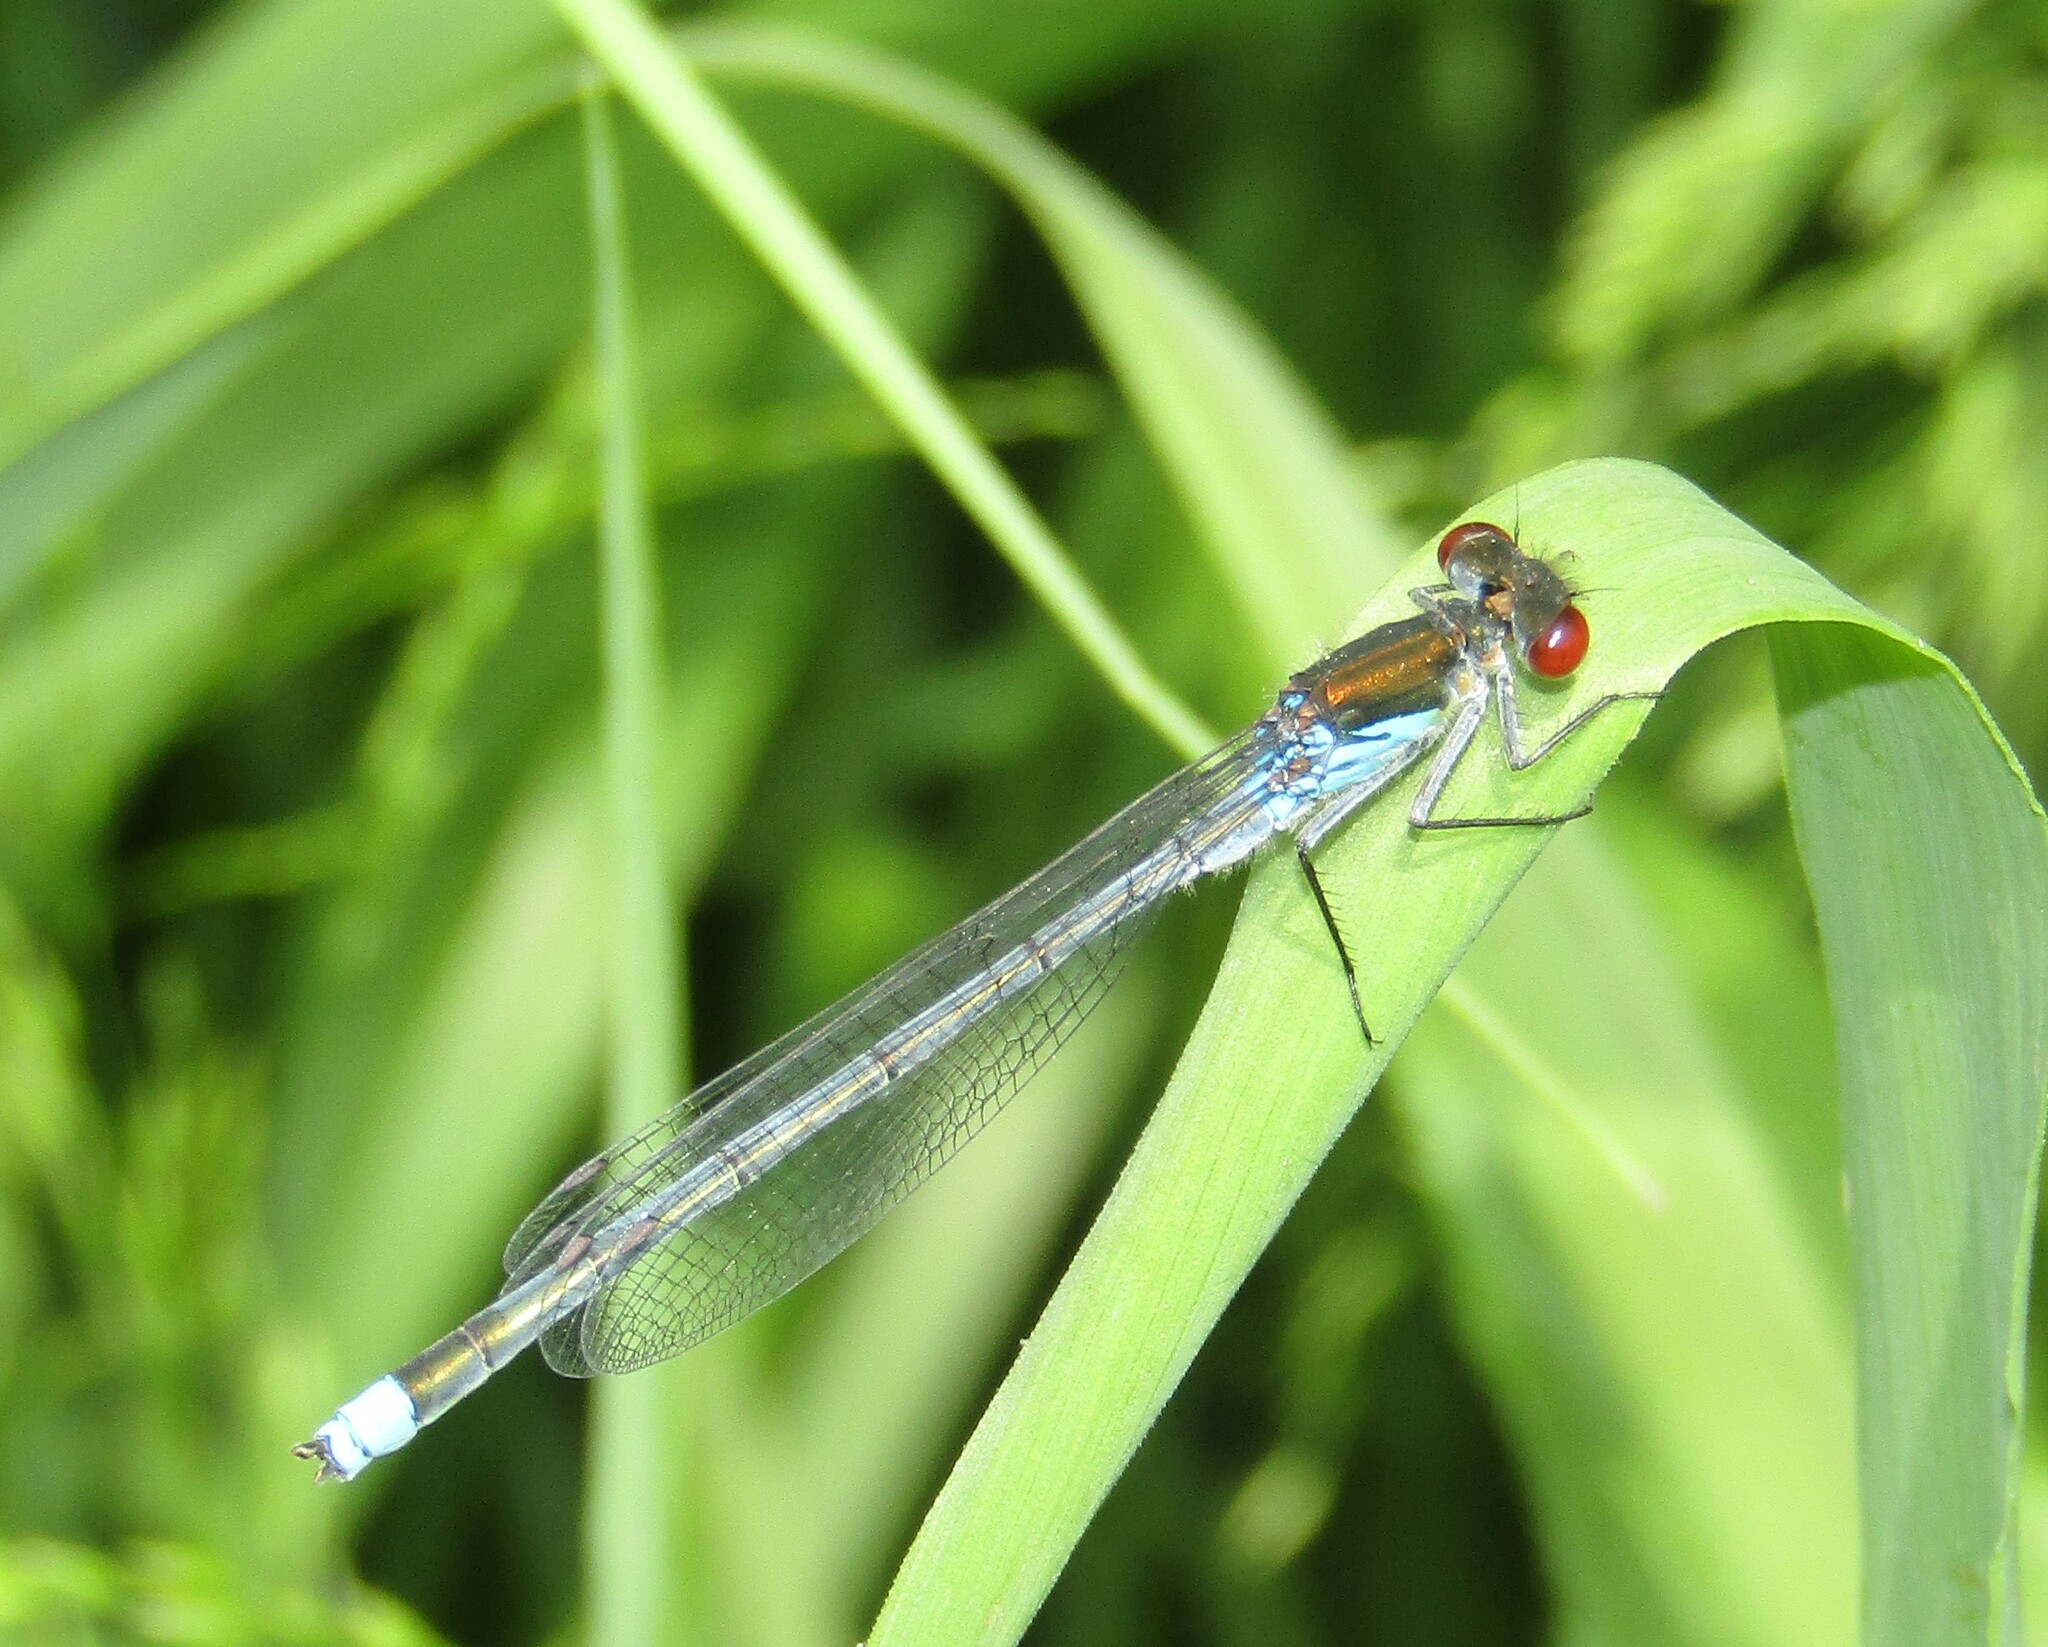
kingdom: Animalia
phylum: Arthropoda
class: Insecta
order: Odonata
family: Coenagrionidae
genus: Erythromma
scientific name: Erythromma najas
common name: Red-eyed damselfly
